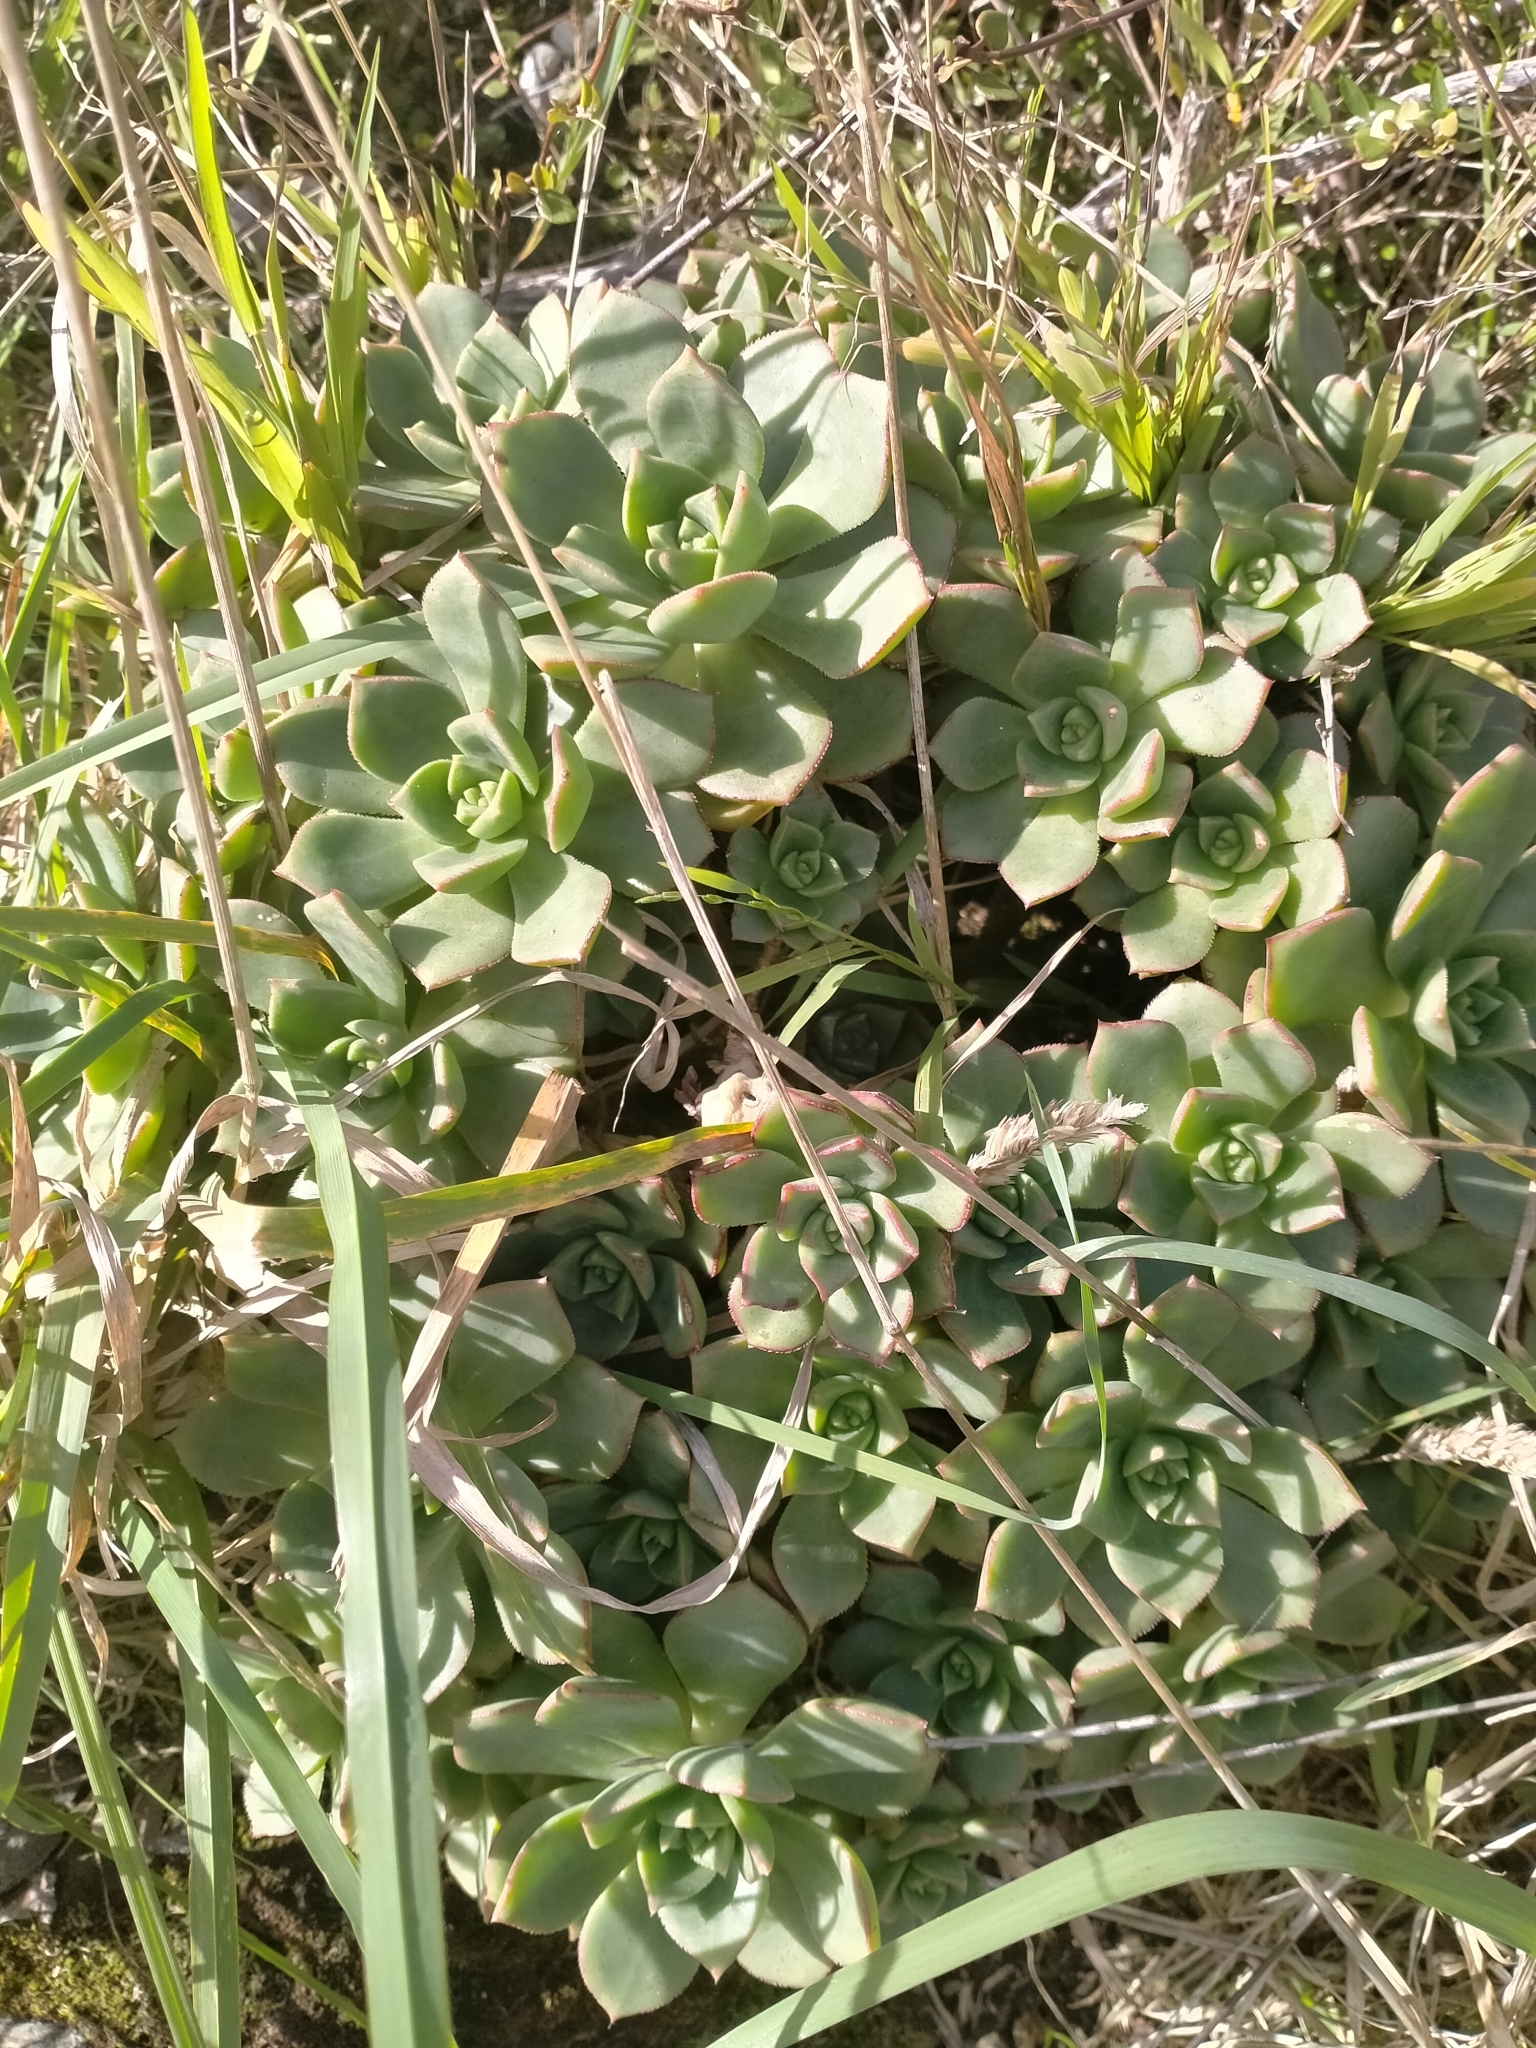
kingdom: Plantae
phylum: Tracheophyta
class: Magnoliopsida
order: Saxifragales
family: Crassulaceae
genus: Aeonium
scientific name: Aeonium haworthii
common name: Haworth's aeonium
